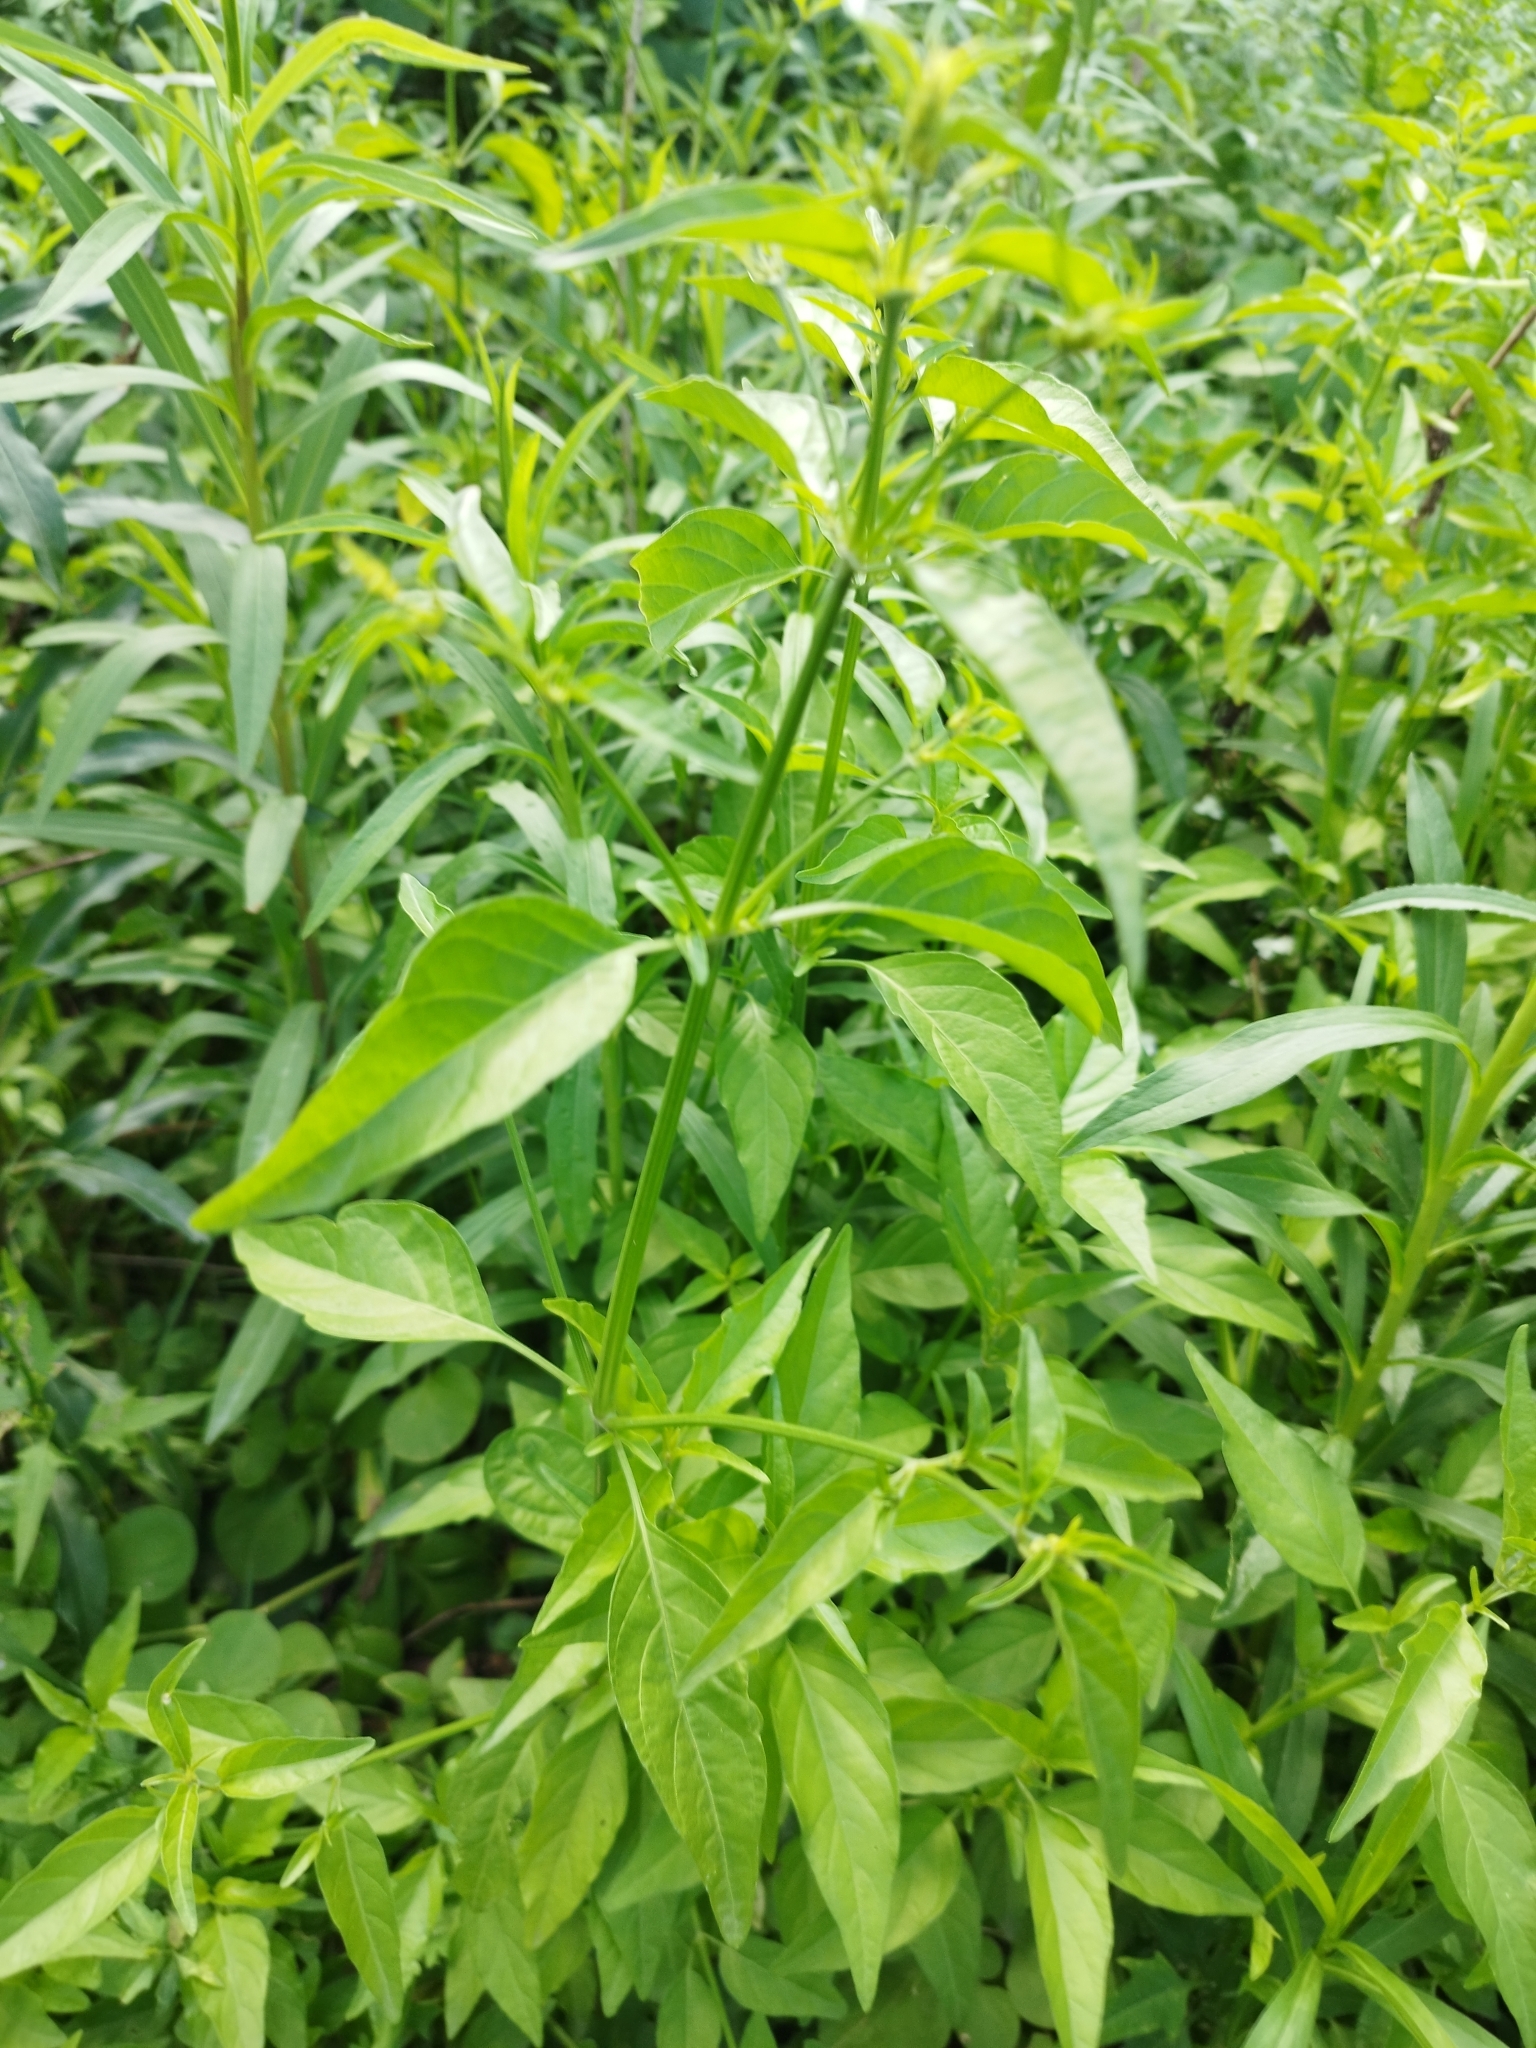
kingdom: Plantae
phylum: Tracheophyta
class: Magnoliopsida
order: Lamiales
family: Acanthaceae
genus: Dicliptera
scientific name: Dicliptera squarrosa
